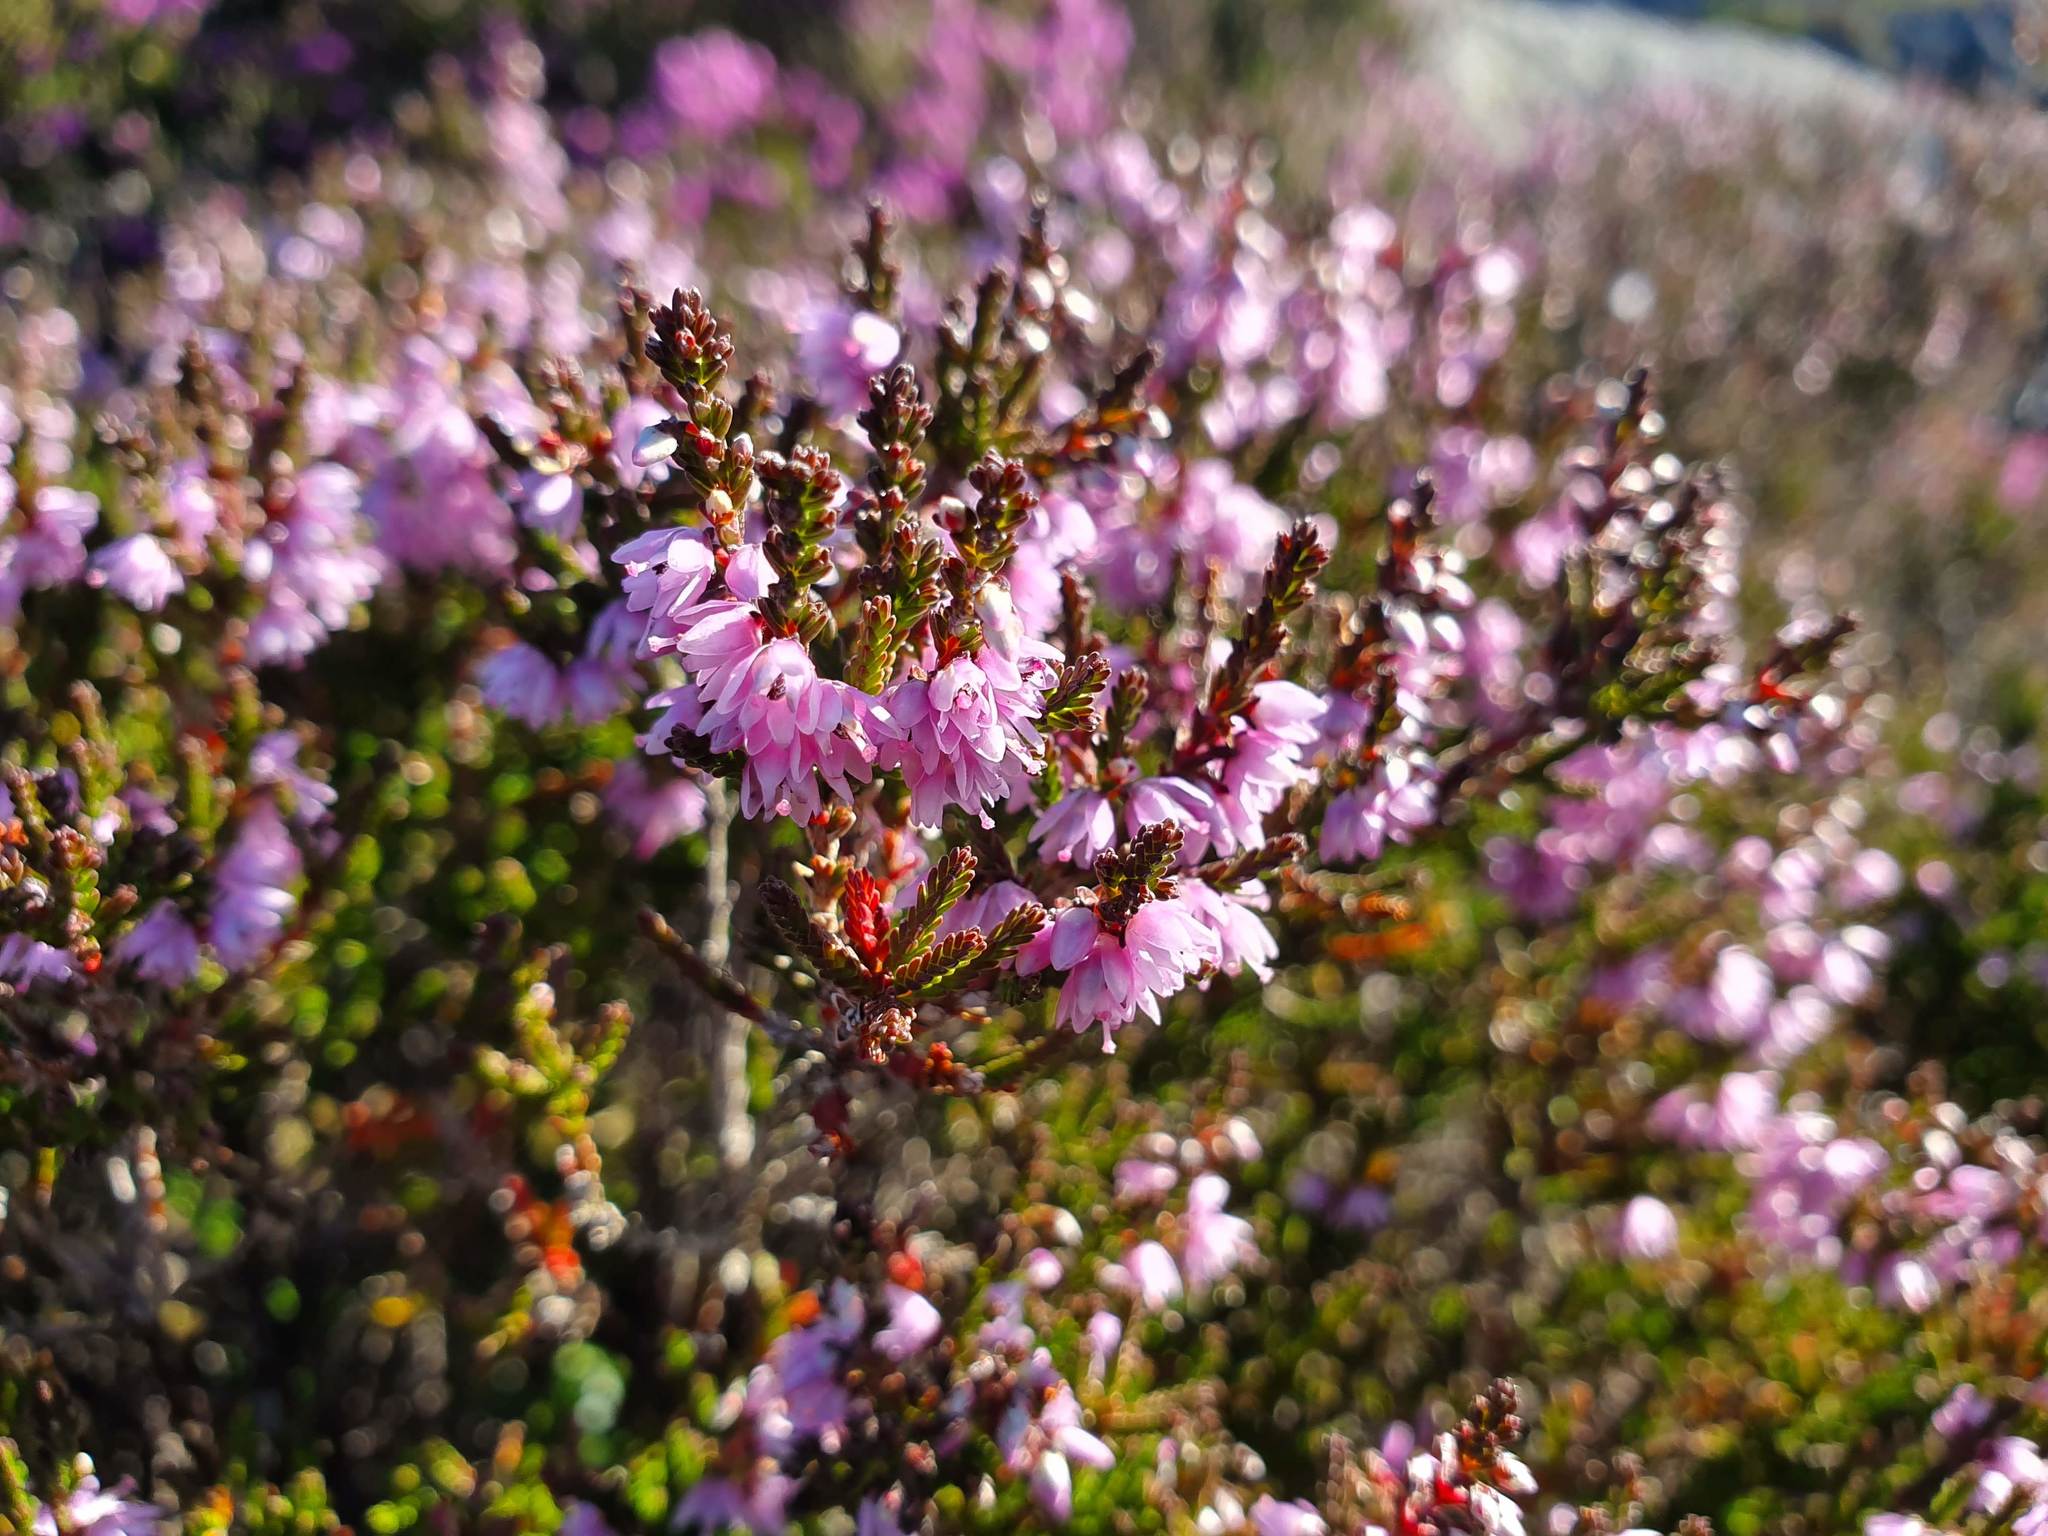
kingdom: Plantae
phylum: Tracheophyta
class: Magnoliopsida
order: Ericales
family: Ericaceae
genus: Calluna
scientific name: Calluna vulgaris
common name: Heather
